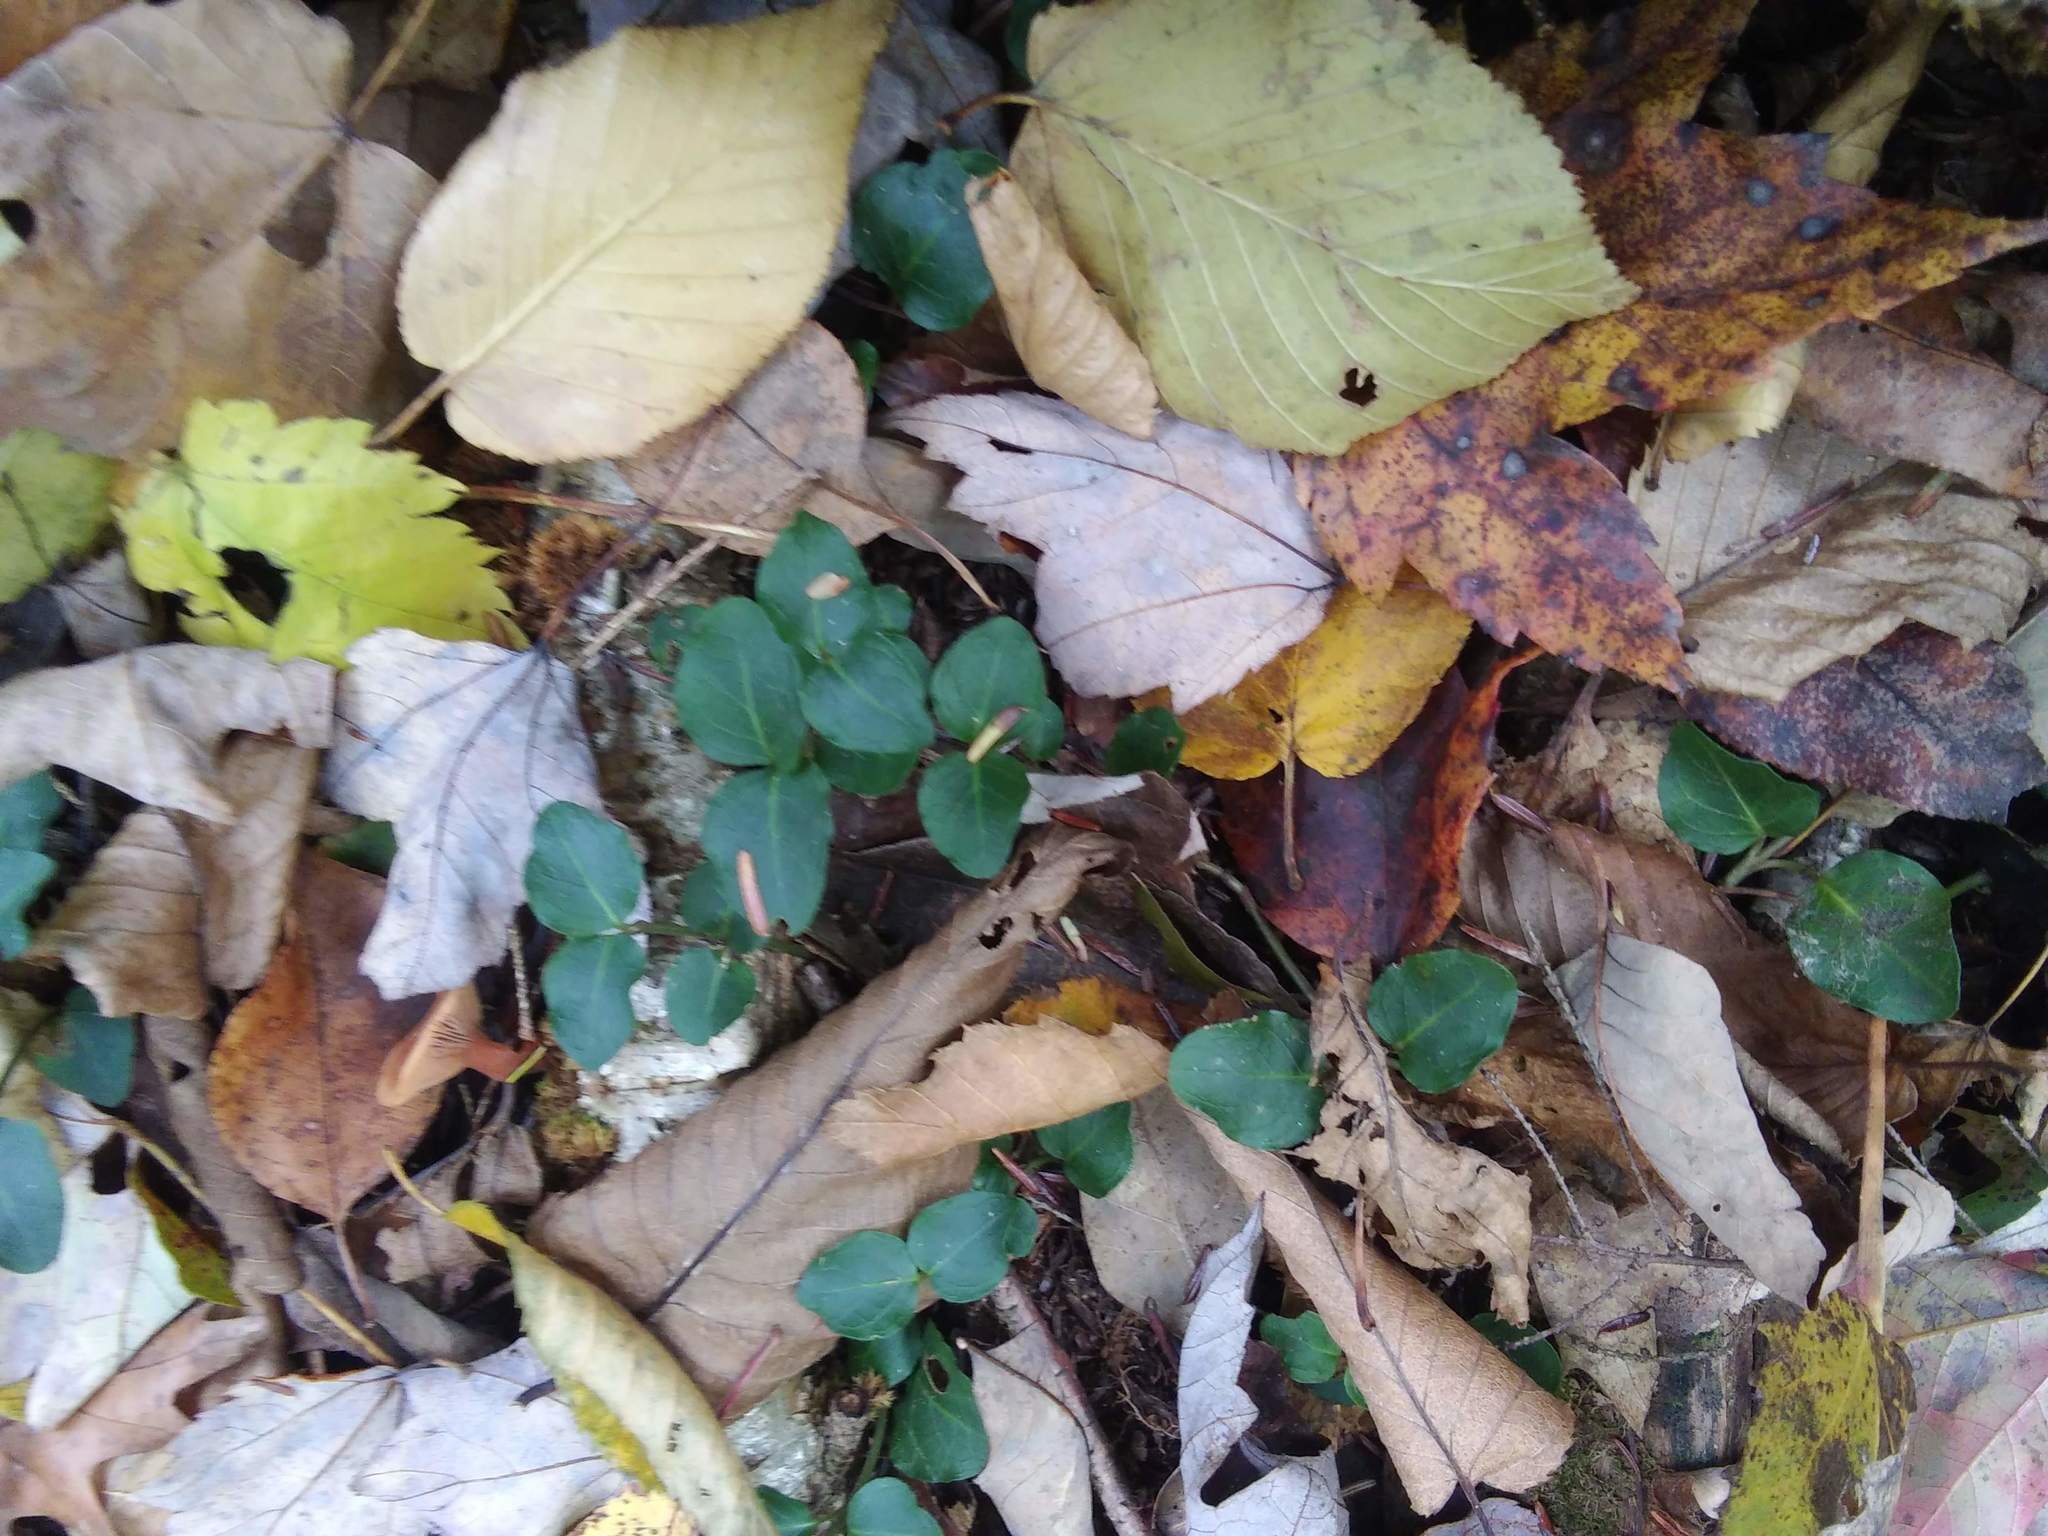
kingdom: Plantae
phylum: Tracheophyta
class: Magnoliopsida
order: Gentianales
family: Rubiaceae
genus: Mitchella
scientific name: Mitchella repens
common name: Partridge-berry
